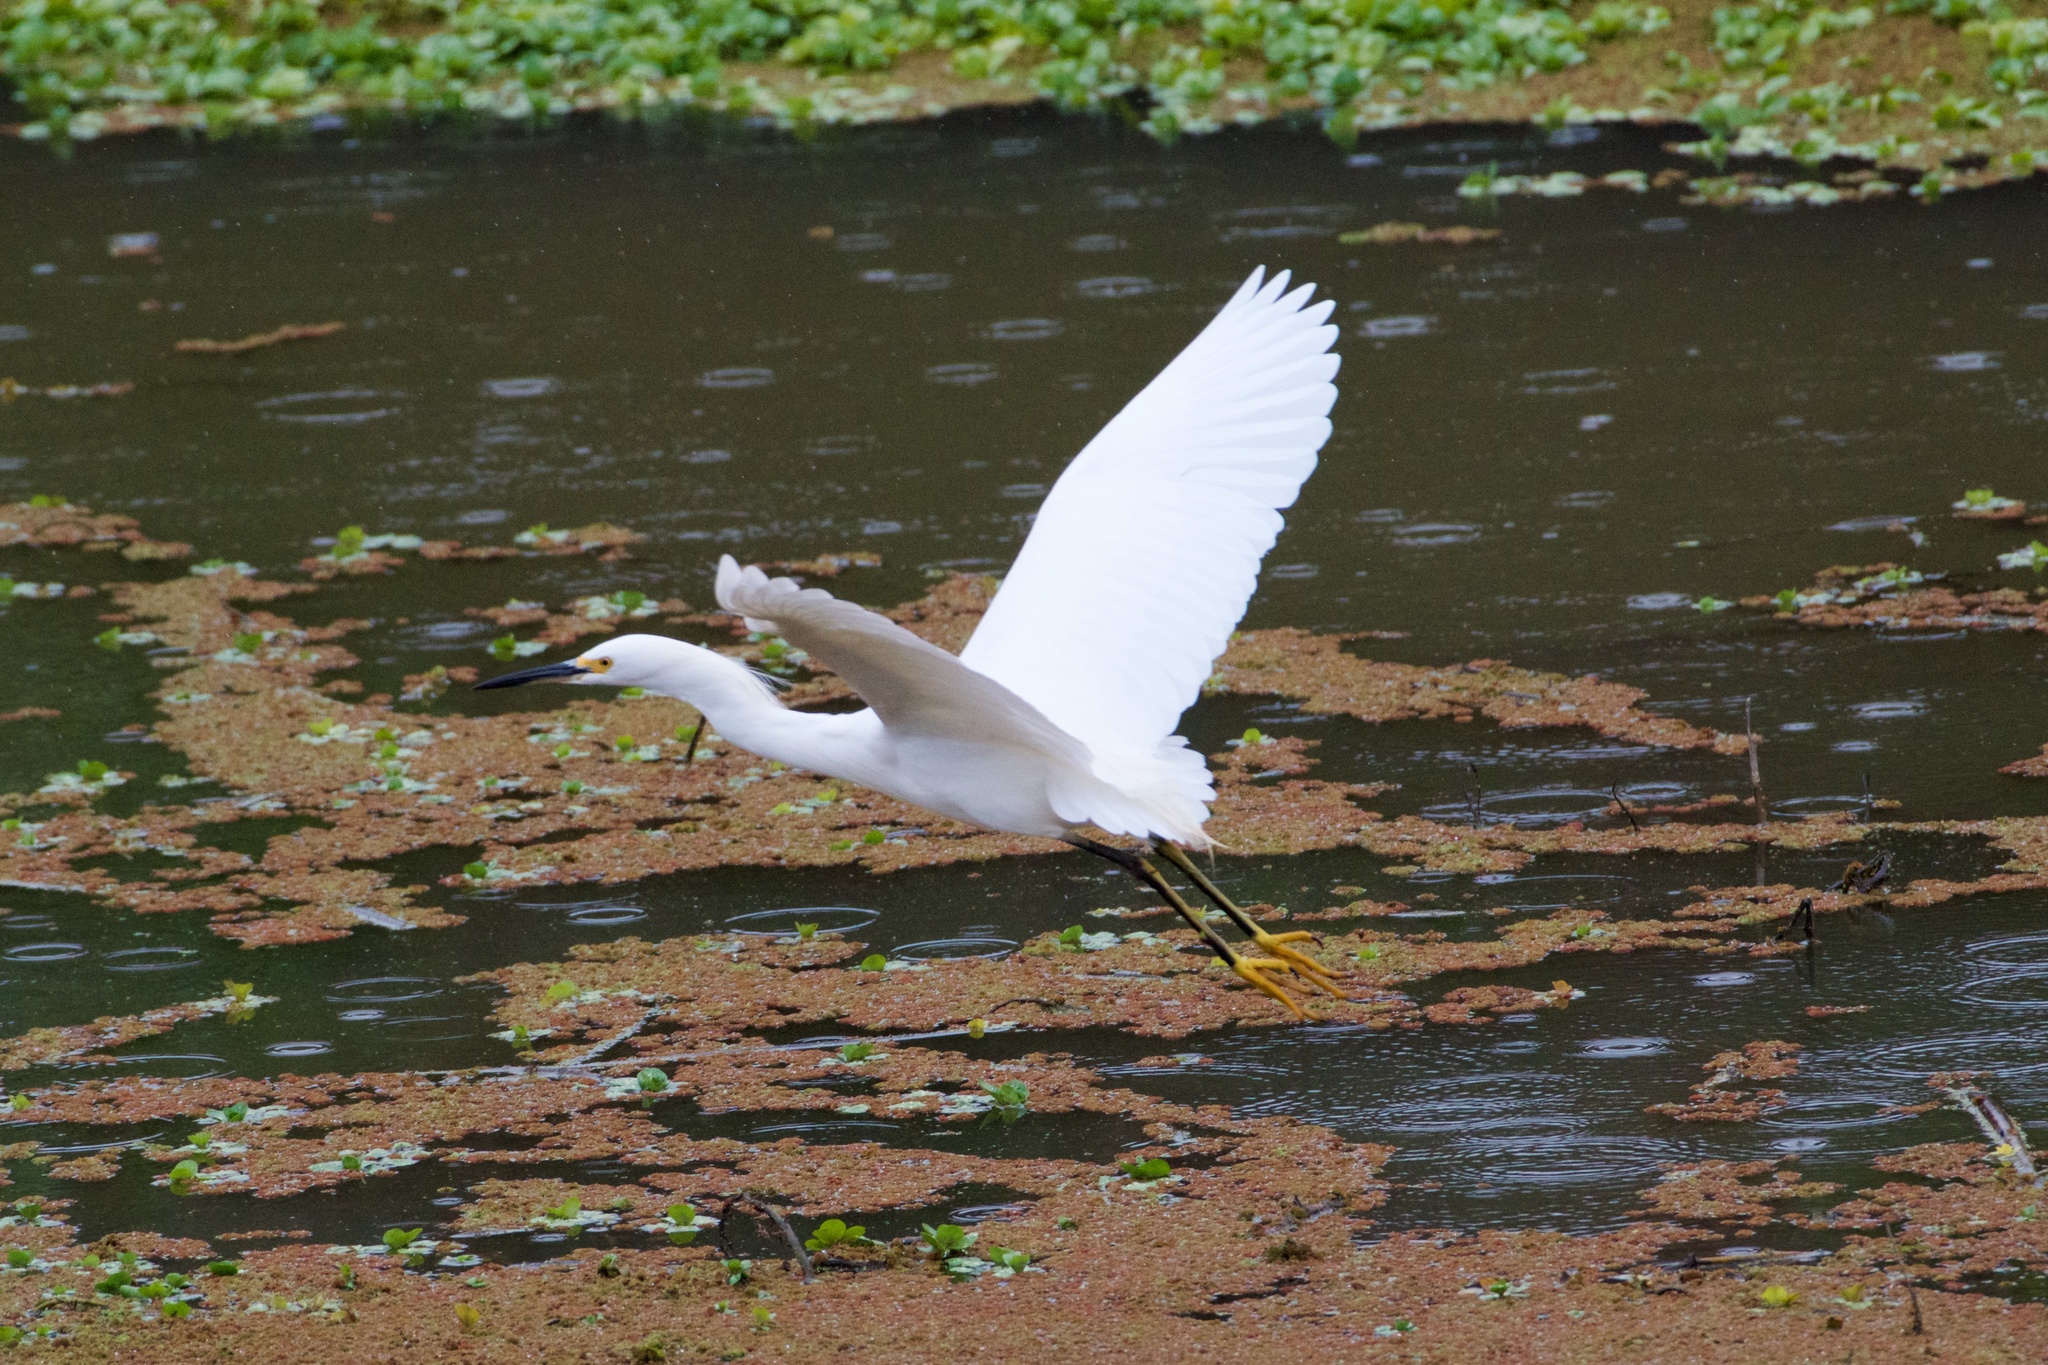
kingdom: Animalia
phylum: Chordata
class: Aves
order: Pelecaniformes
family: Ardeidae
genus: Egretta
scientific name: Egretta thula
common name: Snowy egret
